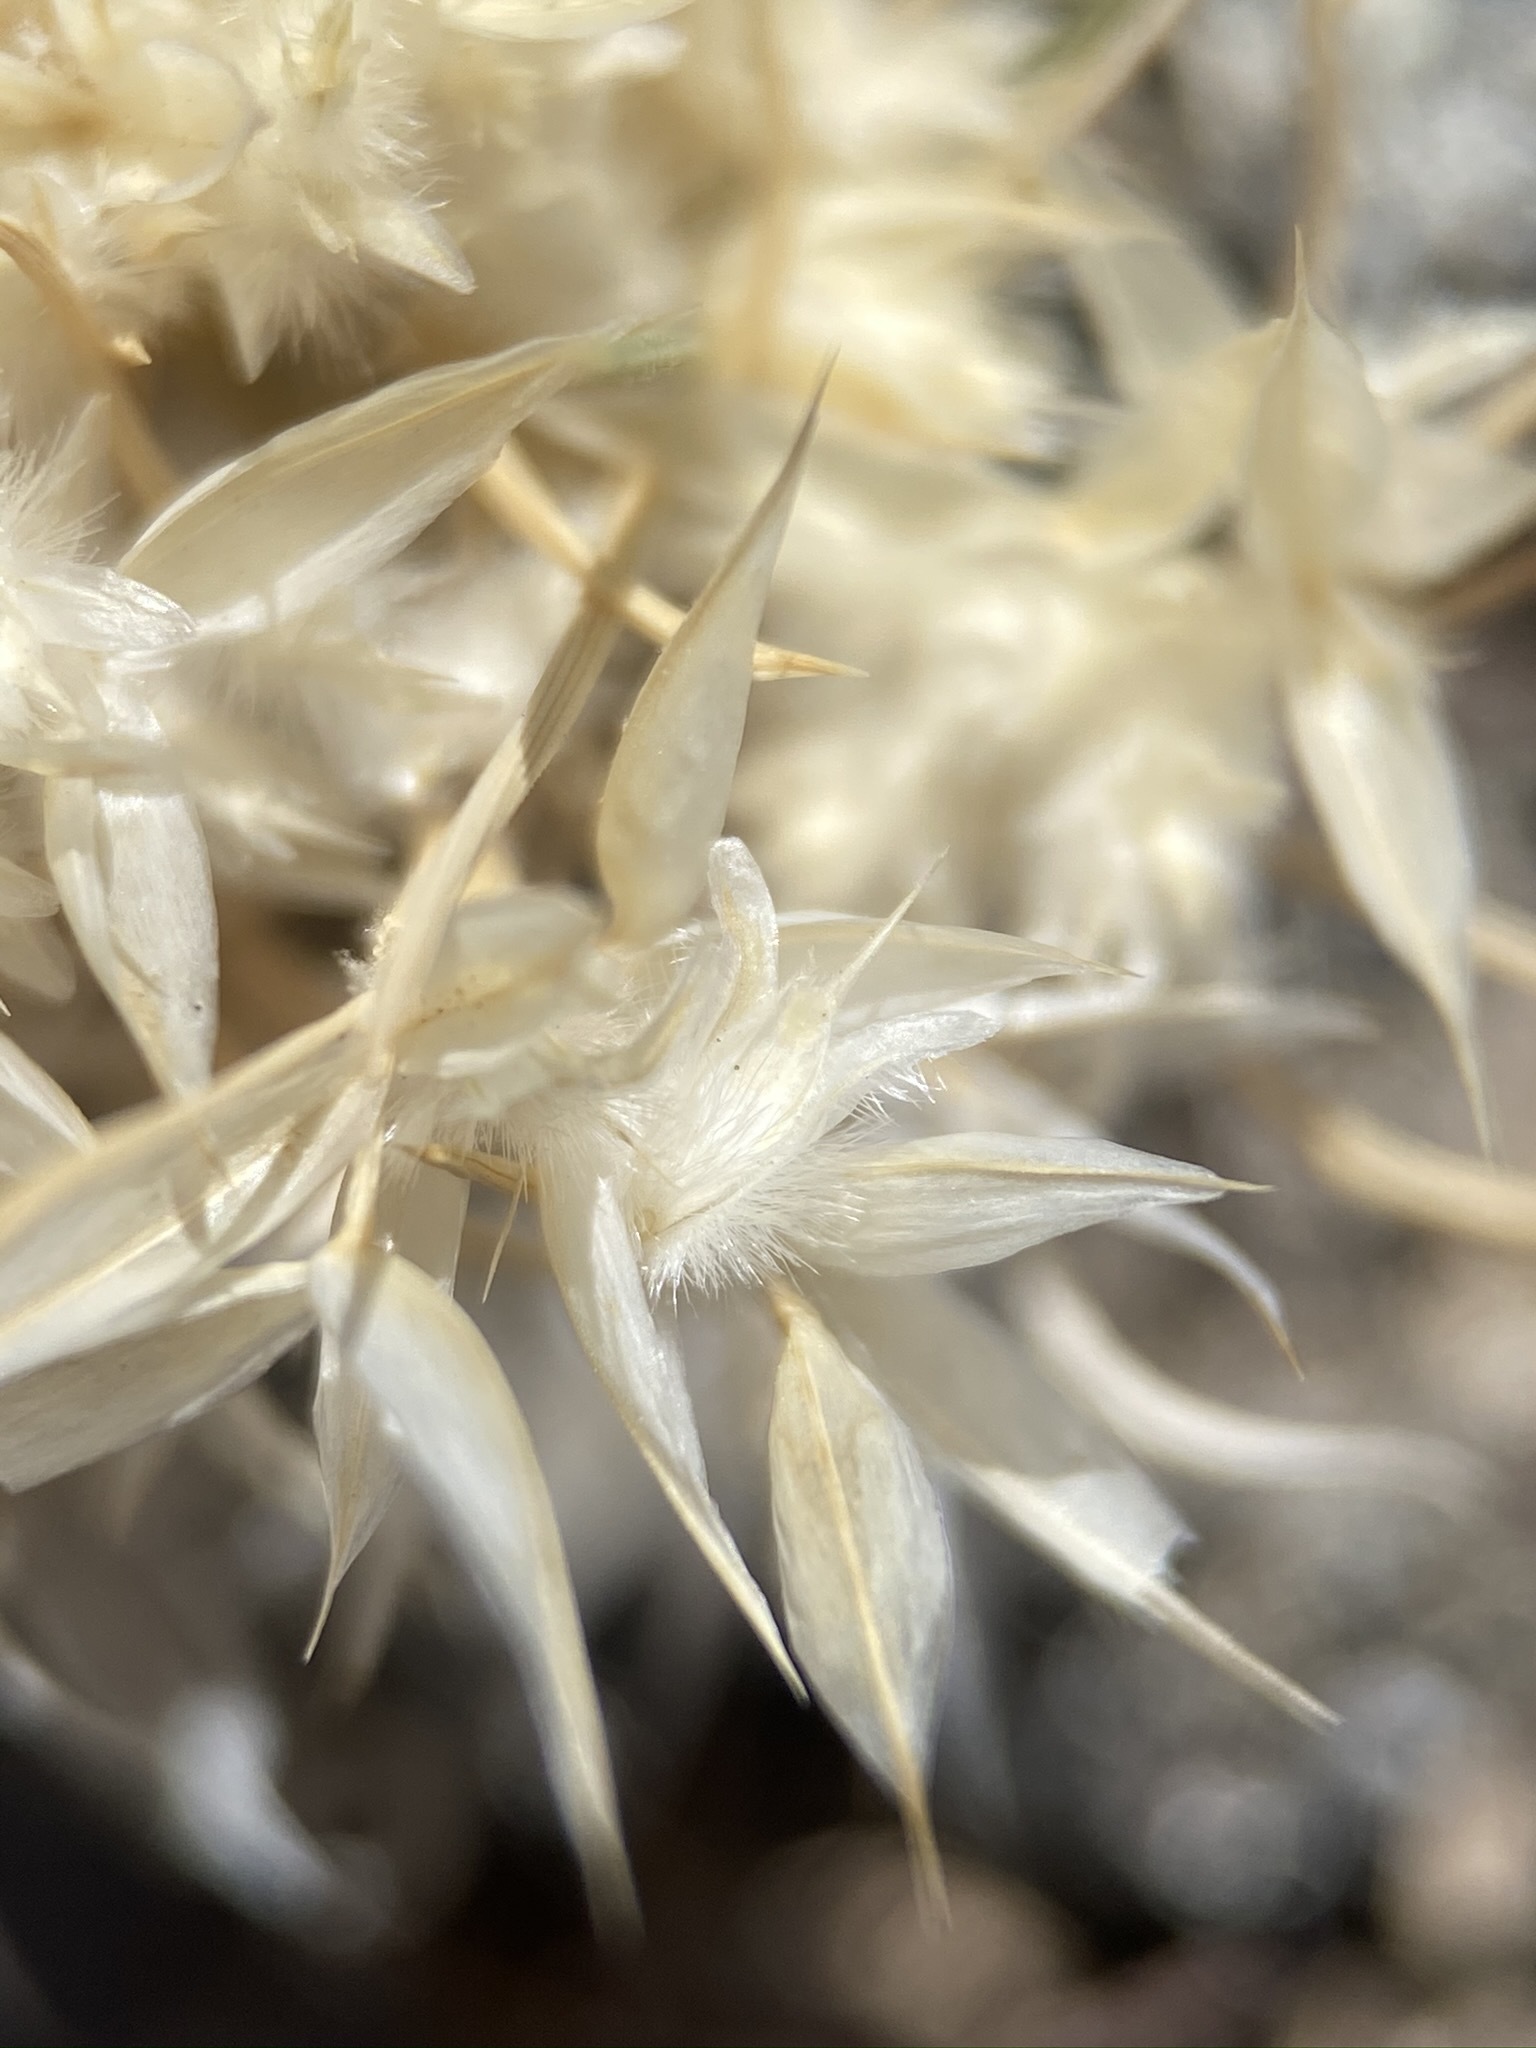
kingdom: Plantae
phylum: Tracheophyta
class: Liliopsida
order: Poales
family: Poaceae
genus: Dasyochloa
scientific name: Dasyochloa pulchella
